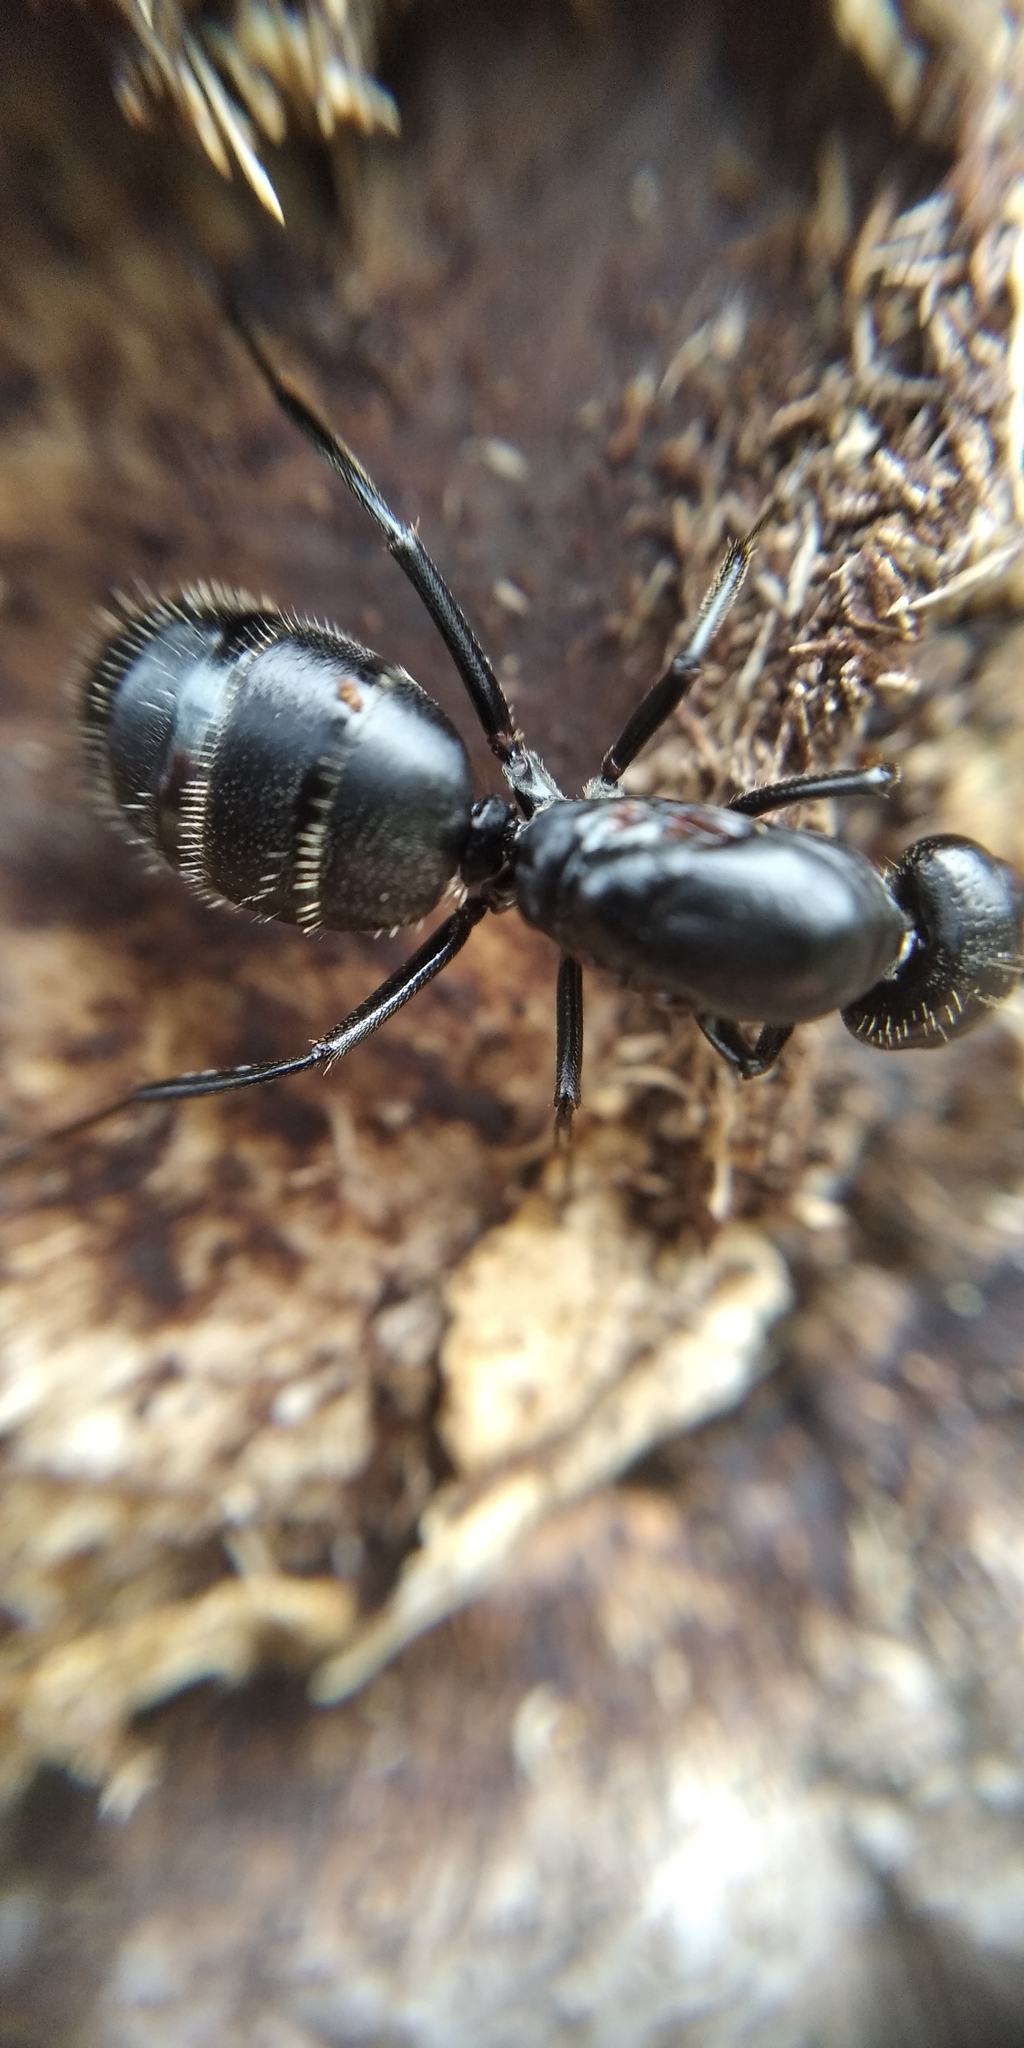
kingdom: Animalia
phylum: Arthropoda
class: Insecta
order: Hymenoptera
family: Formicidae
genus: Camponotus
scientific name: Camponotus vagus
